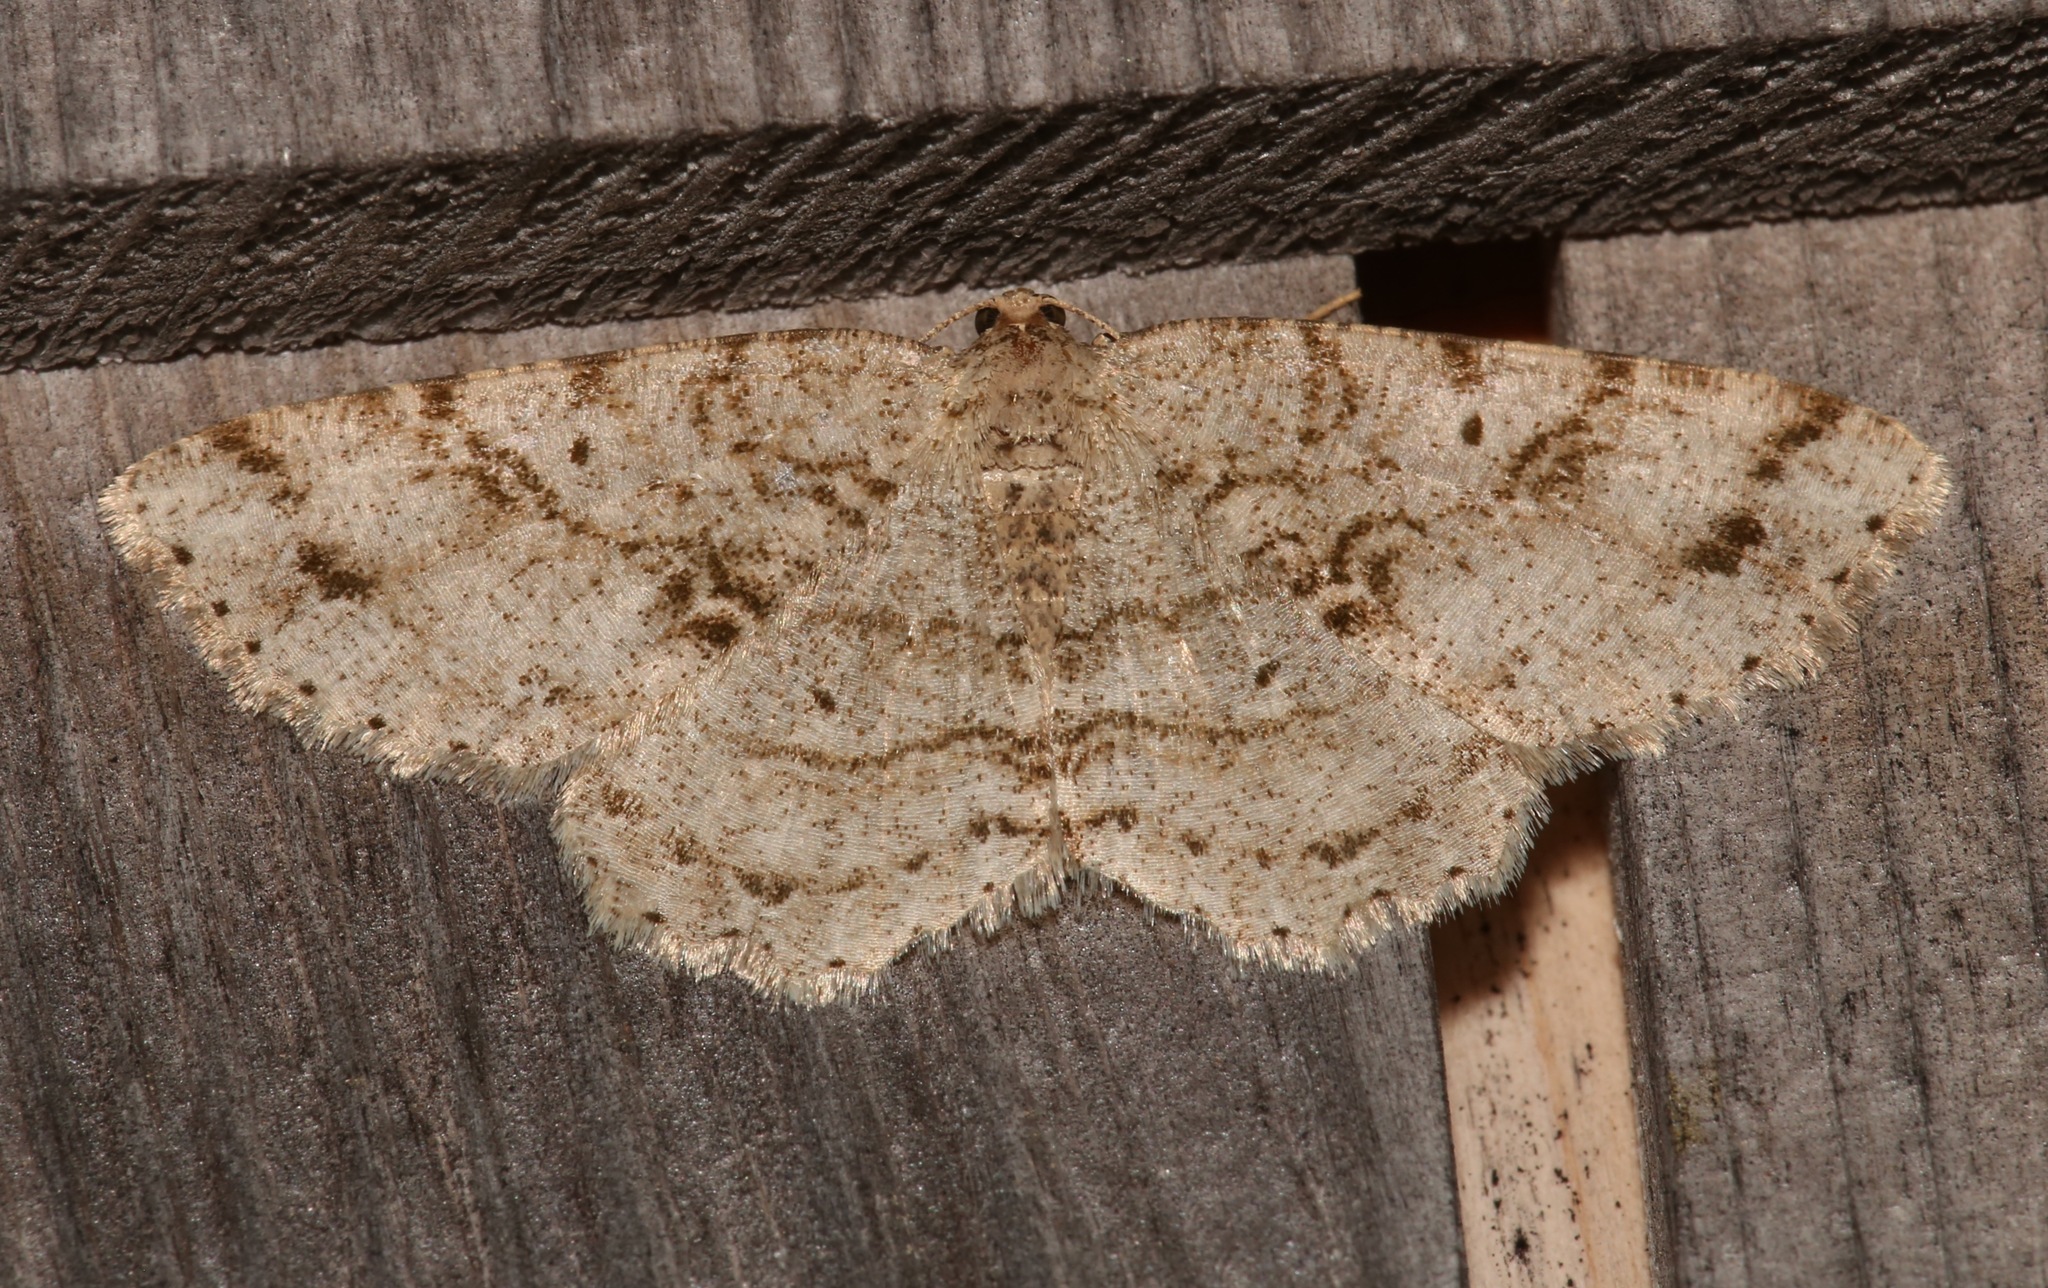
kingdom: Animalia
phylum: Arthropoda
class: Insecta
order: Lepidoptera
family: Geometridae
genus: Melanolophia
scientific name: Melanolophia canadaria
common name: Canadian melanolophia
